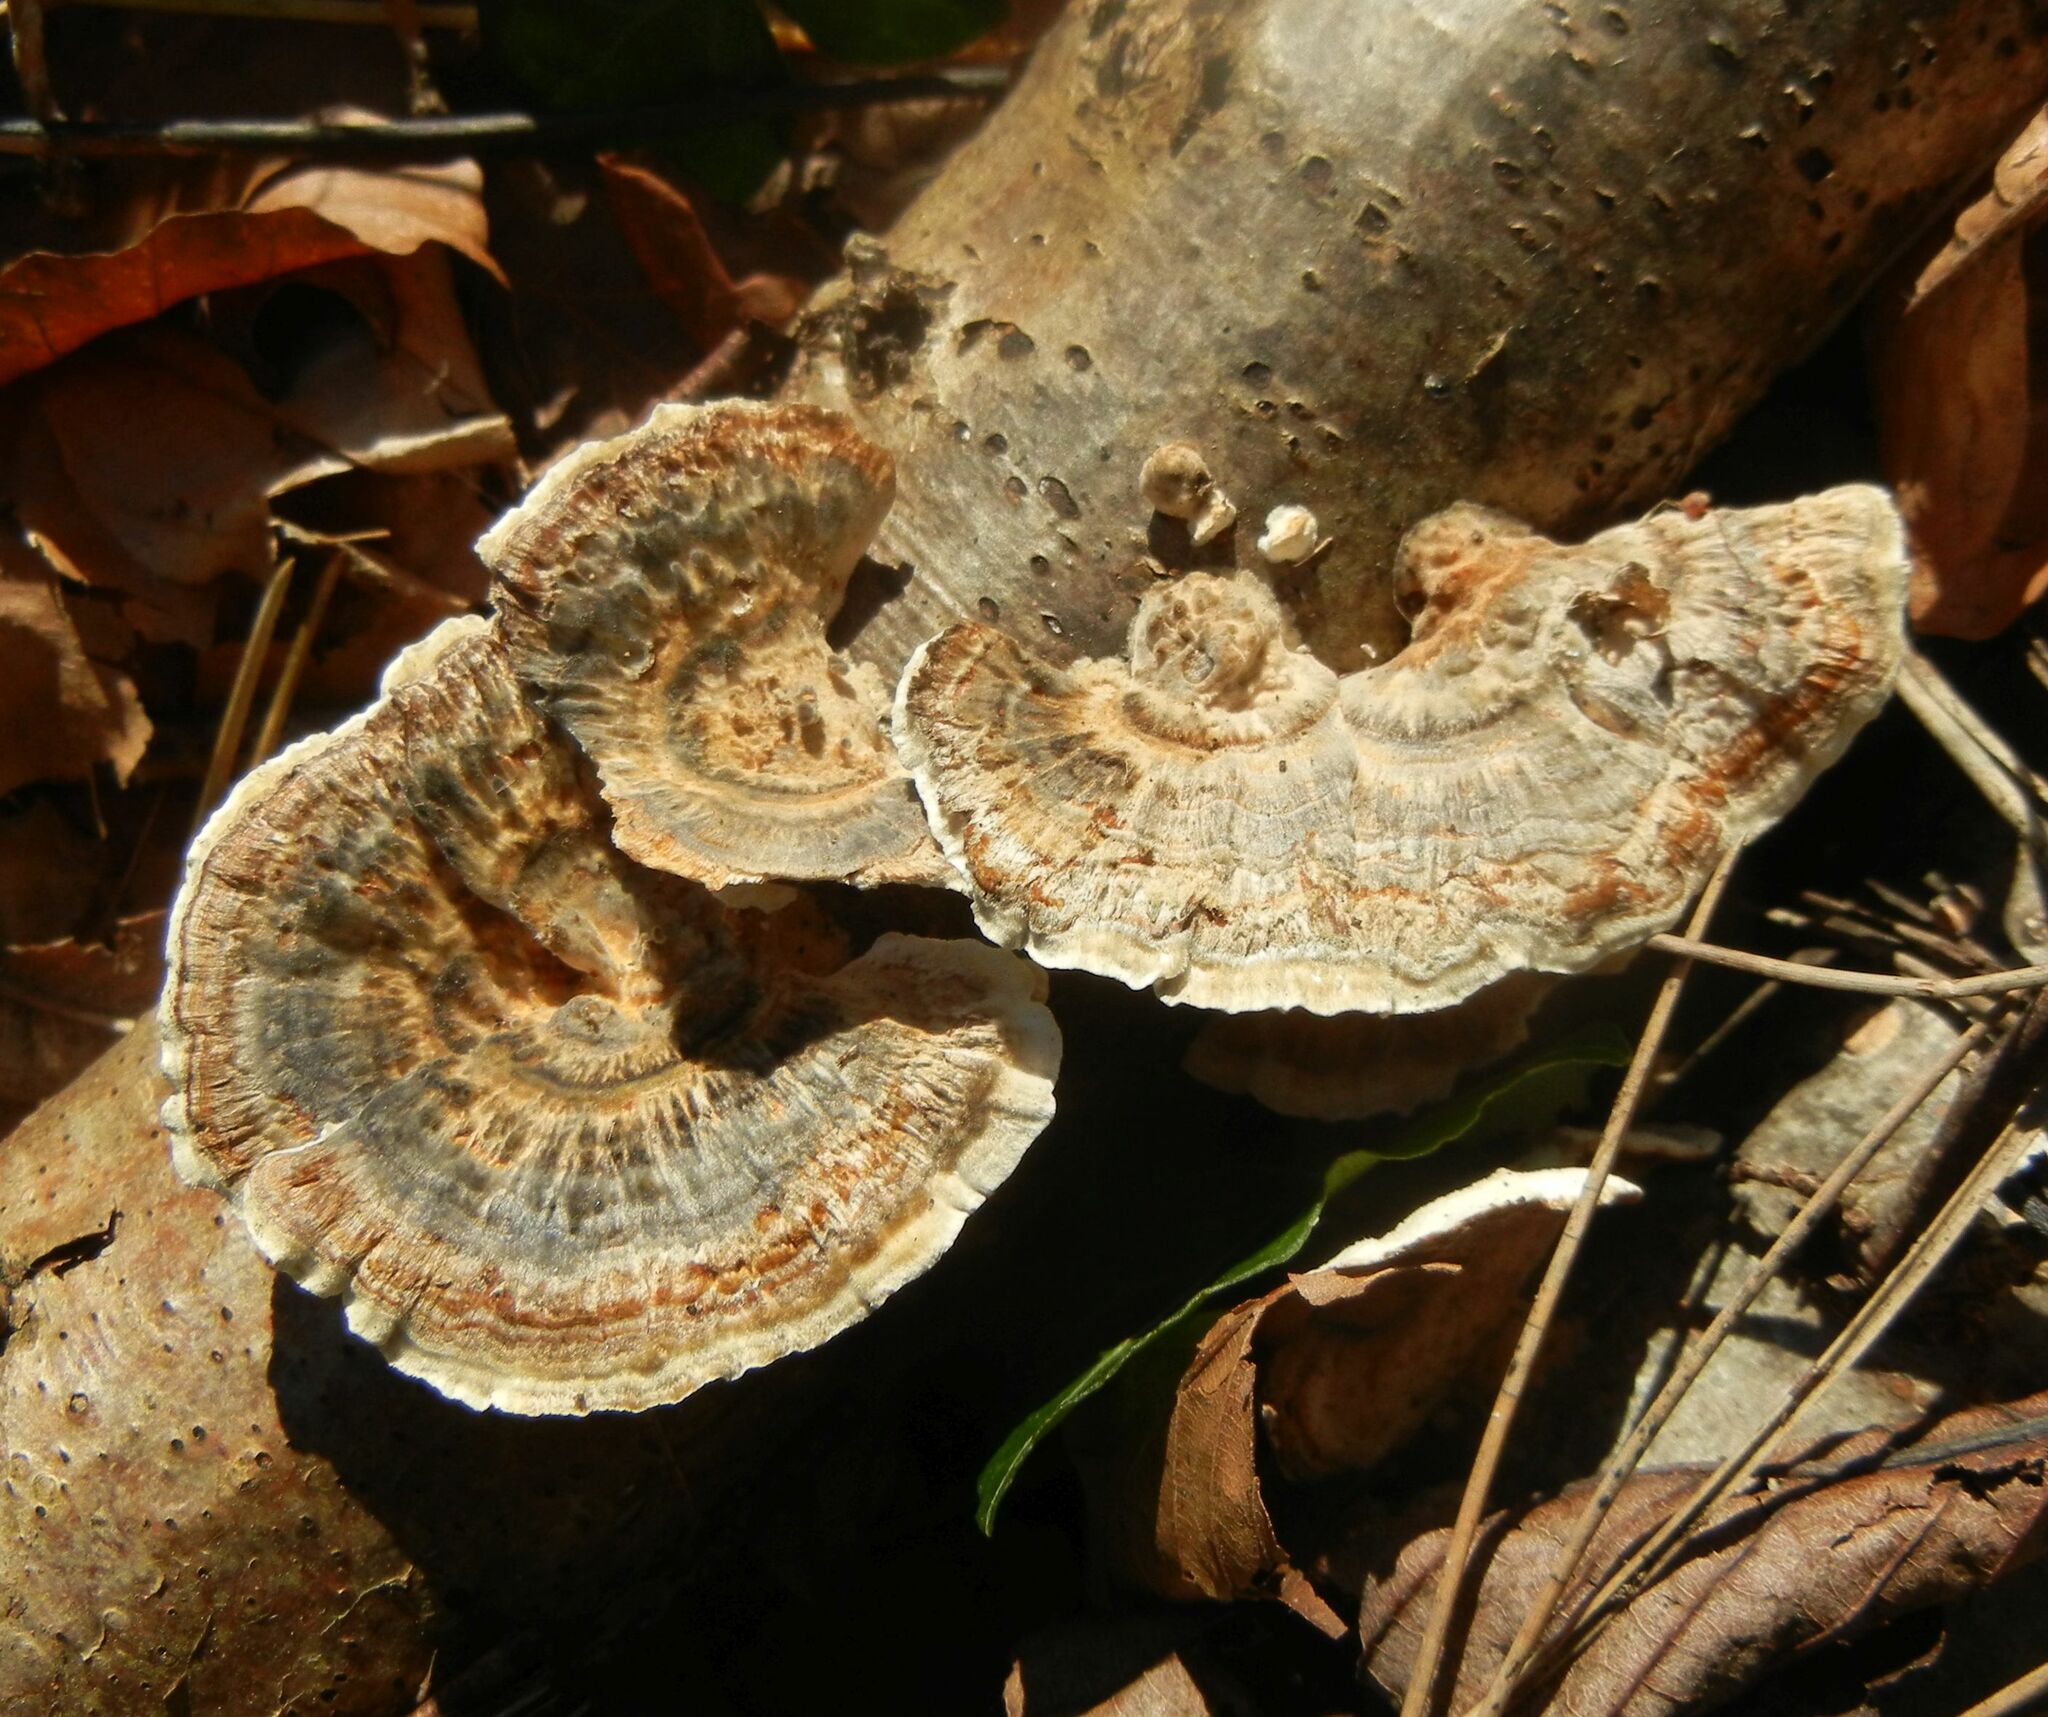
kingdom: Fungi
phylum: Basidiomycota
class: Agaricomycetes
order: Polyporales
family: Polyporaceae
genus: Trametes
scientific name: Trametes versicolor
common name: Turkeytail
